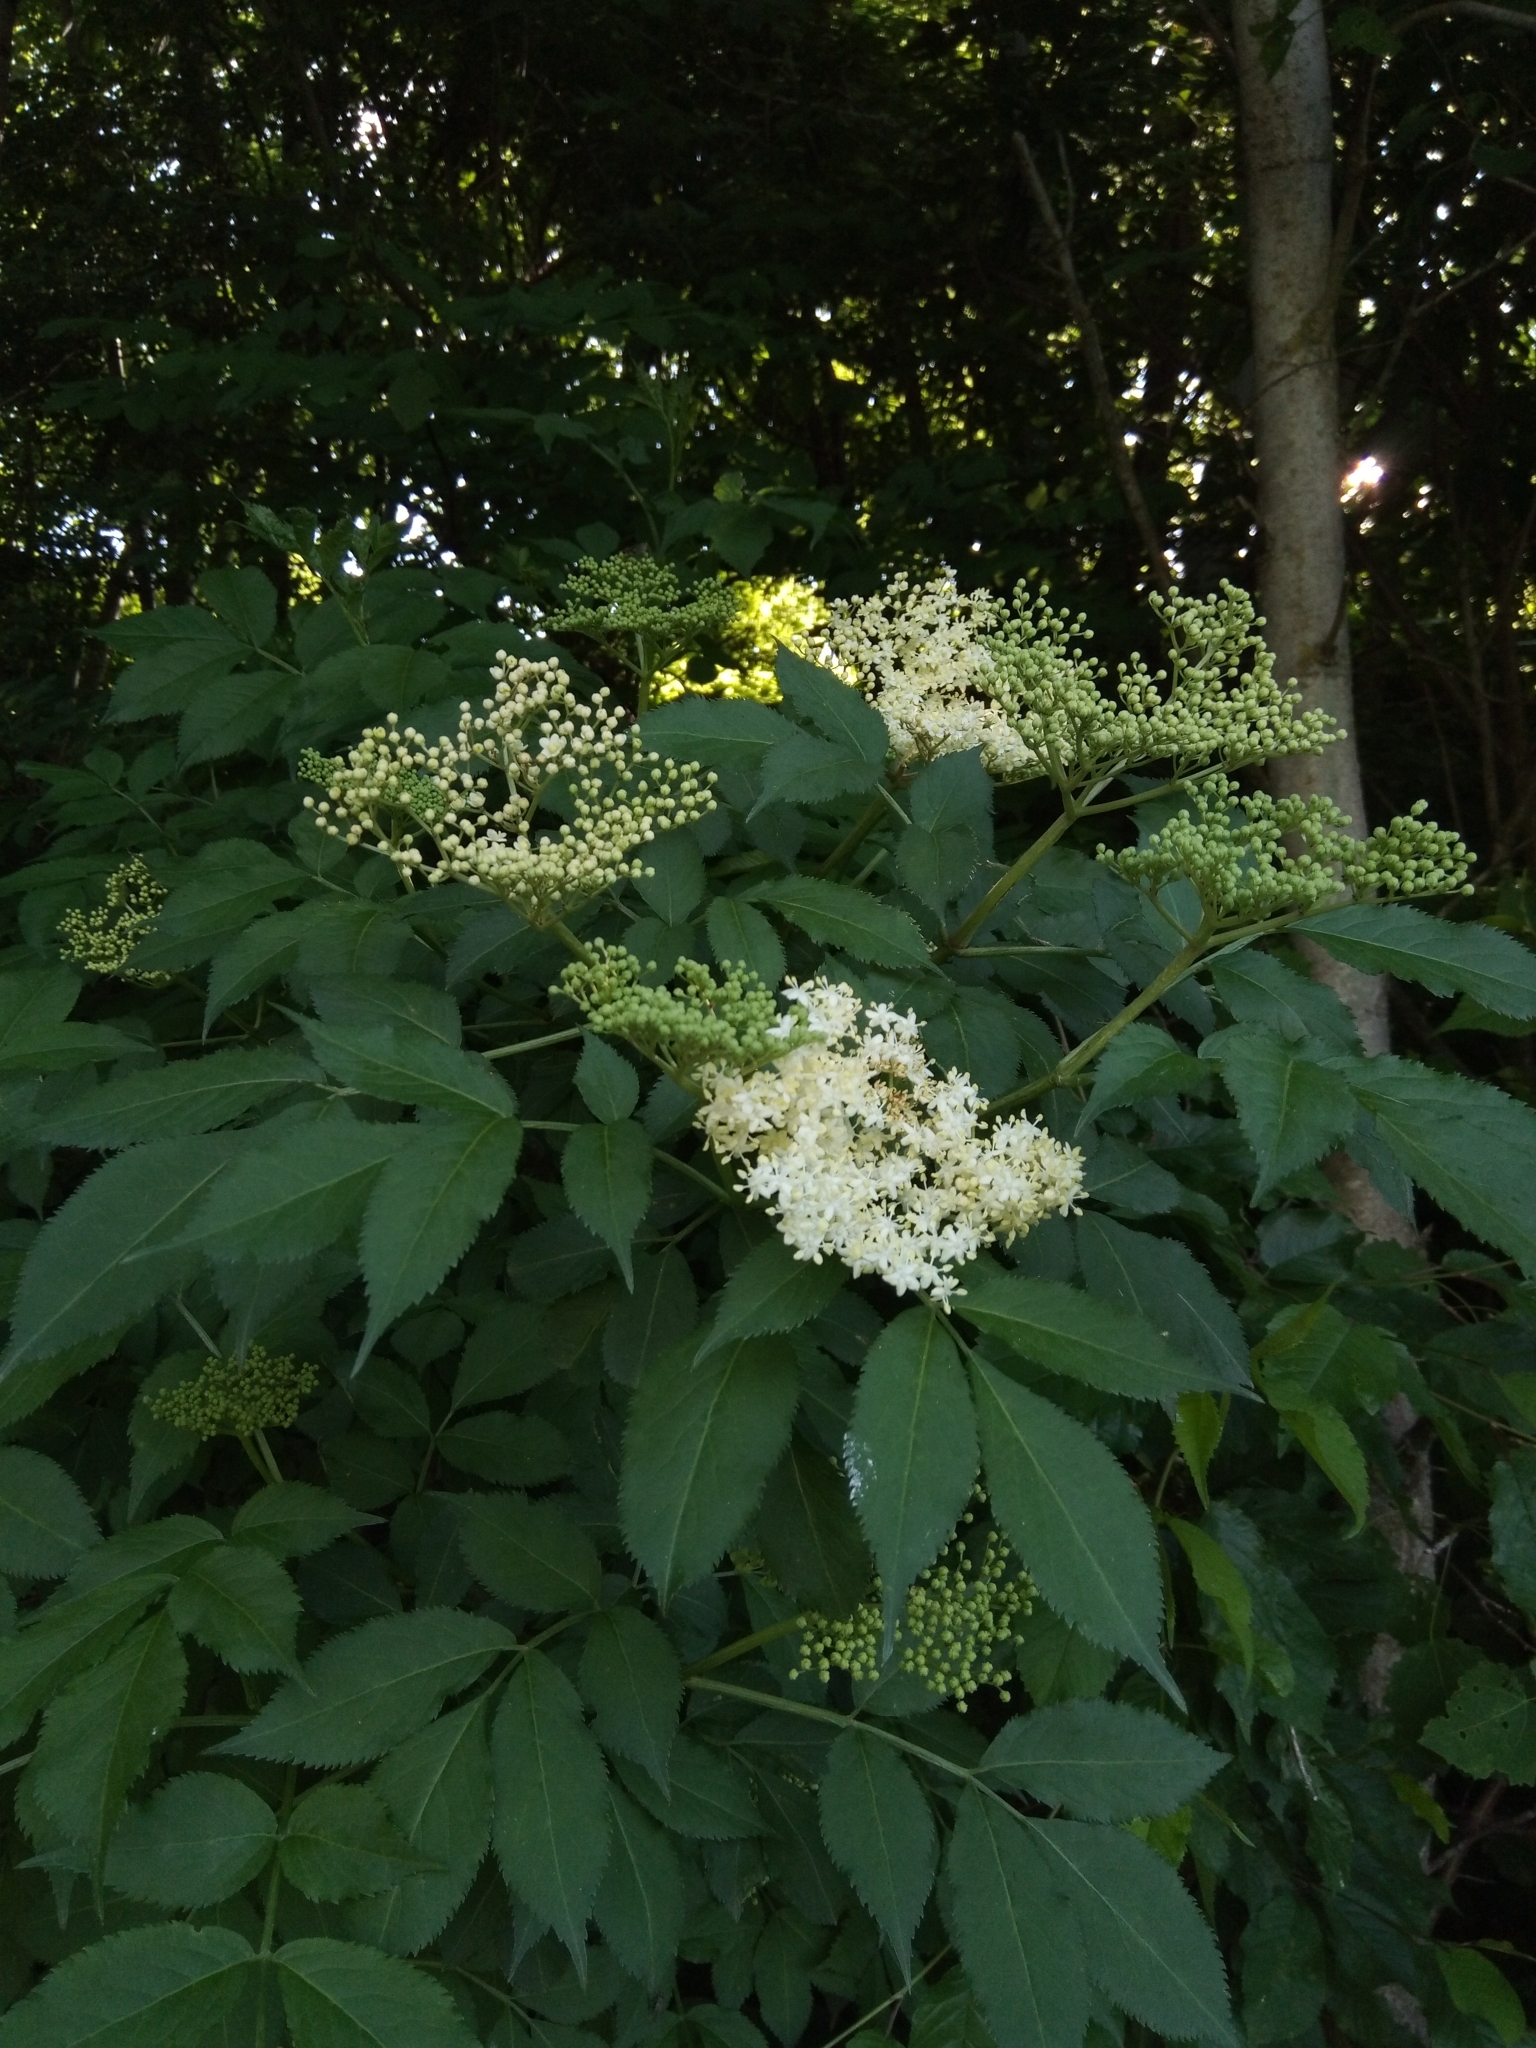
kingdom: Plantae
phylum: Tracheophyta
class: Magnoliopsida
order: Dipsacales
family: Viburnaceae
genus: Sambucus
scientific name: Sambucus nigra
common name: Elder
